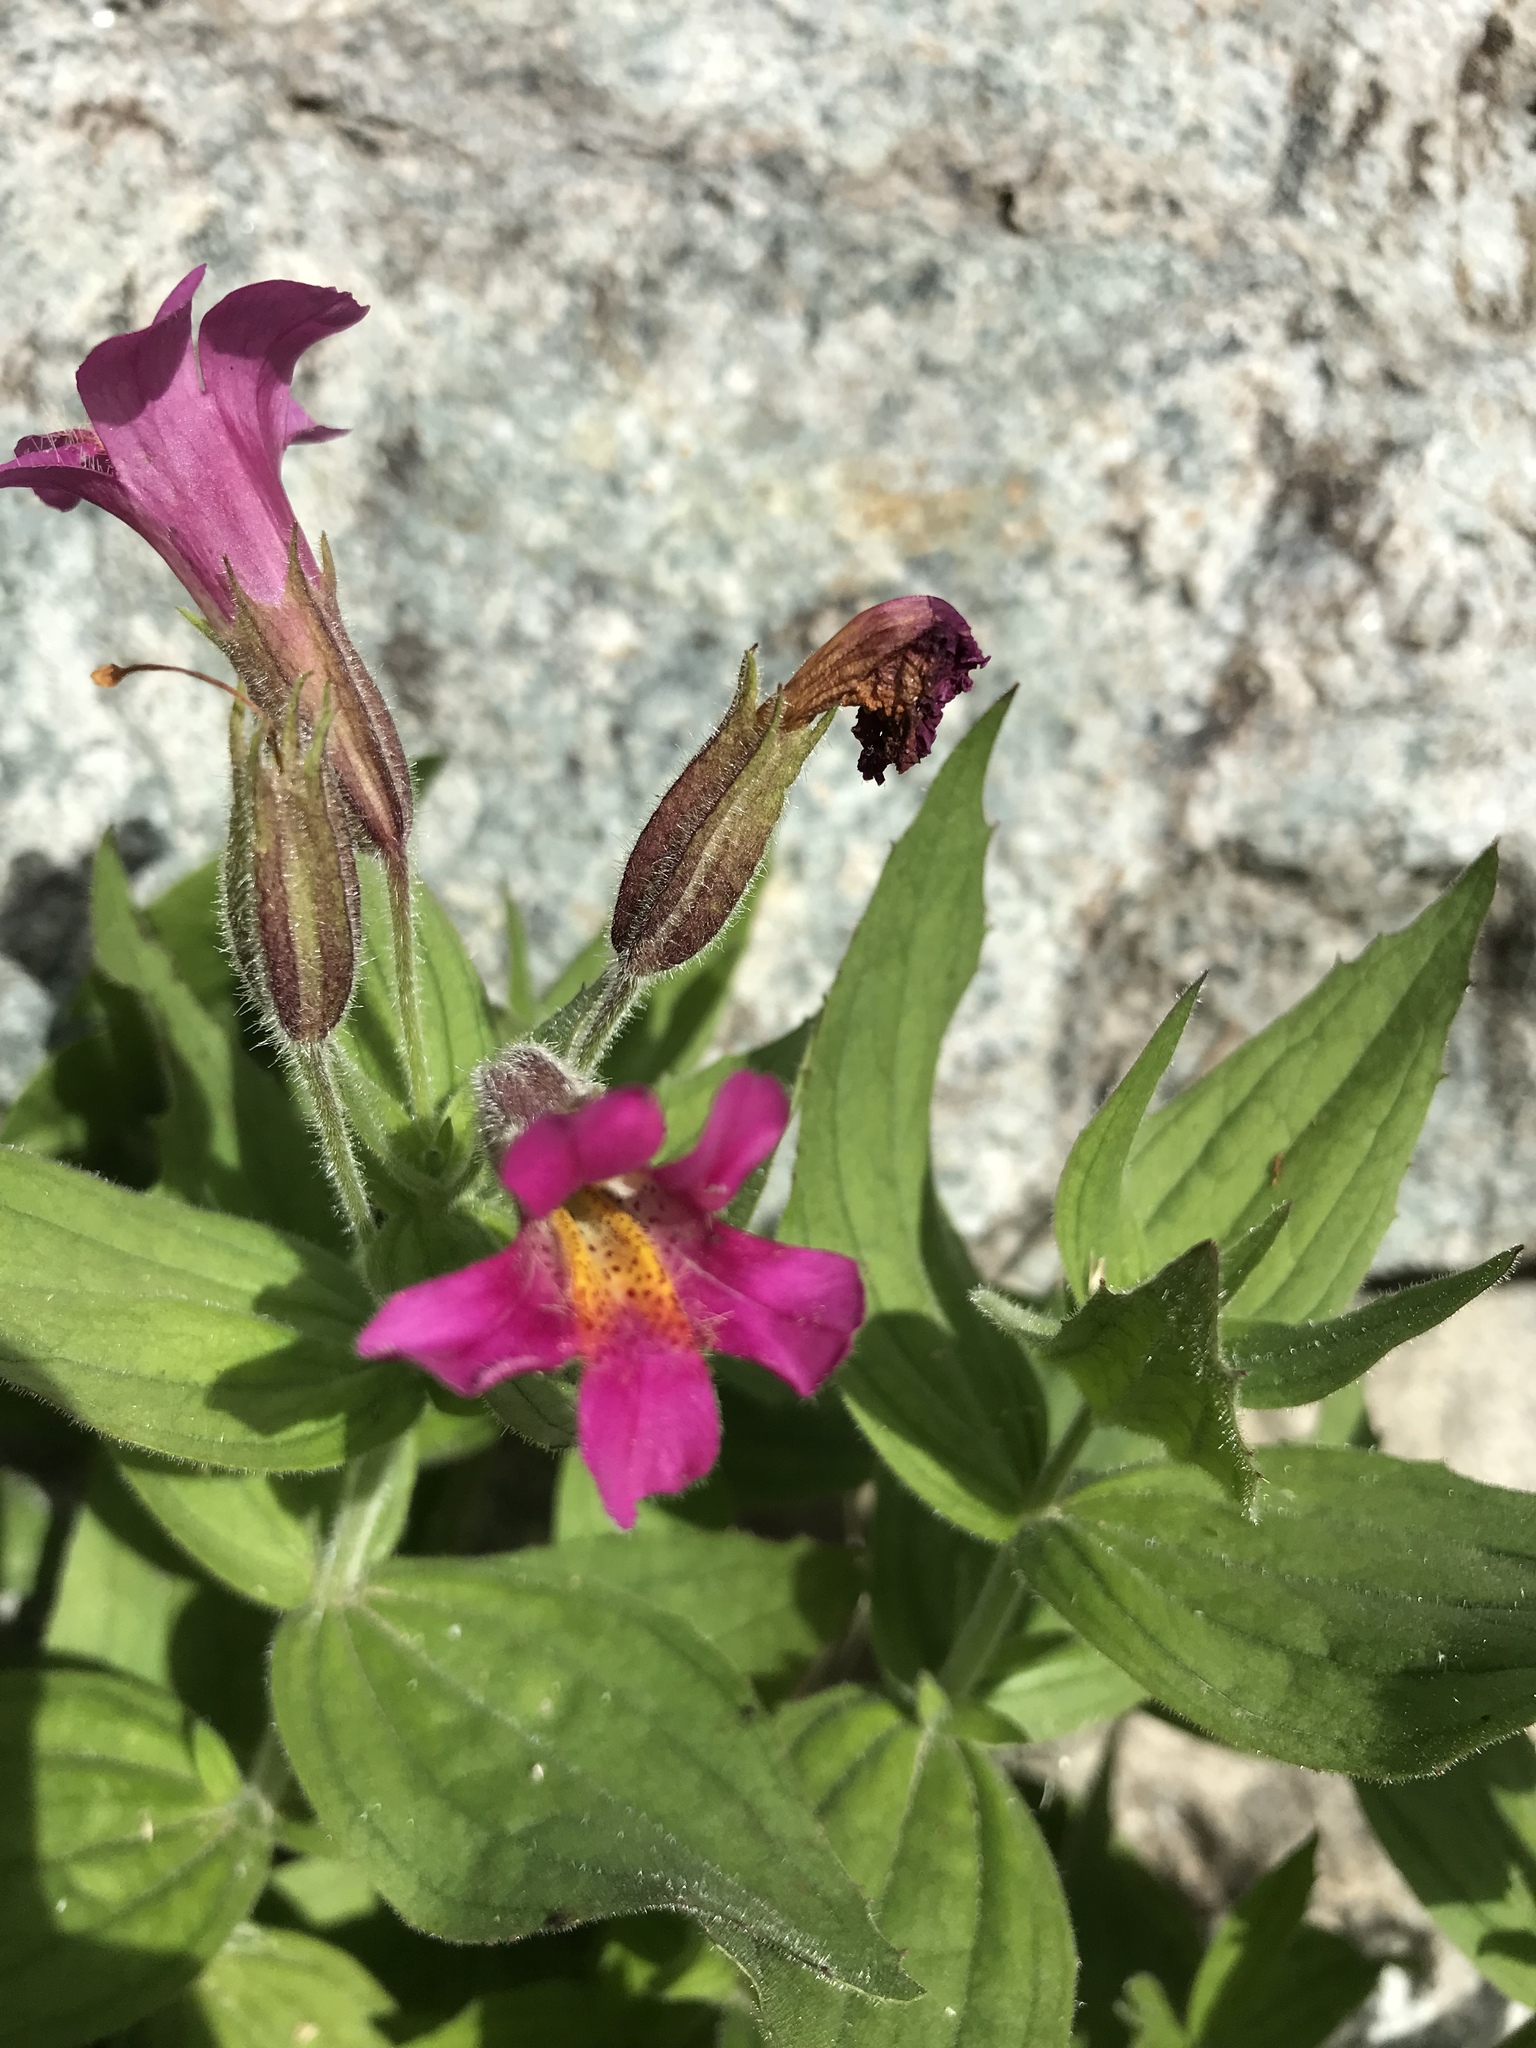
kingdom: Plantae
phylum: Tracheophyta
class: Magnoliopsida
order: Lamiales
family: Phrymaceae
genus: Erythranthe
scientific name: Erythranthe lewisii
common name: Lewis's monkey-flower
